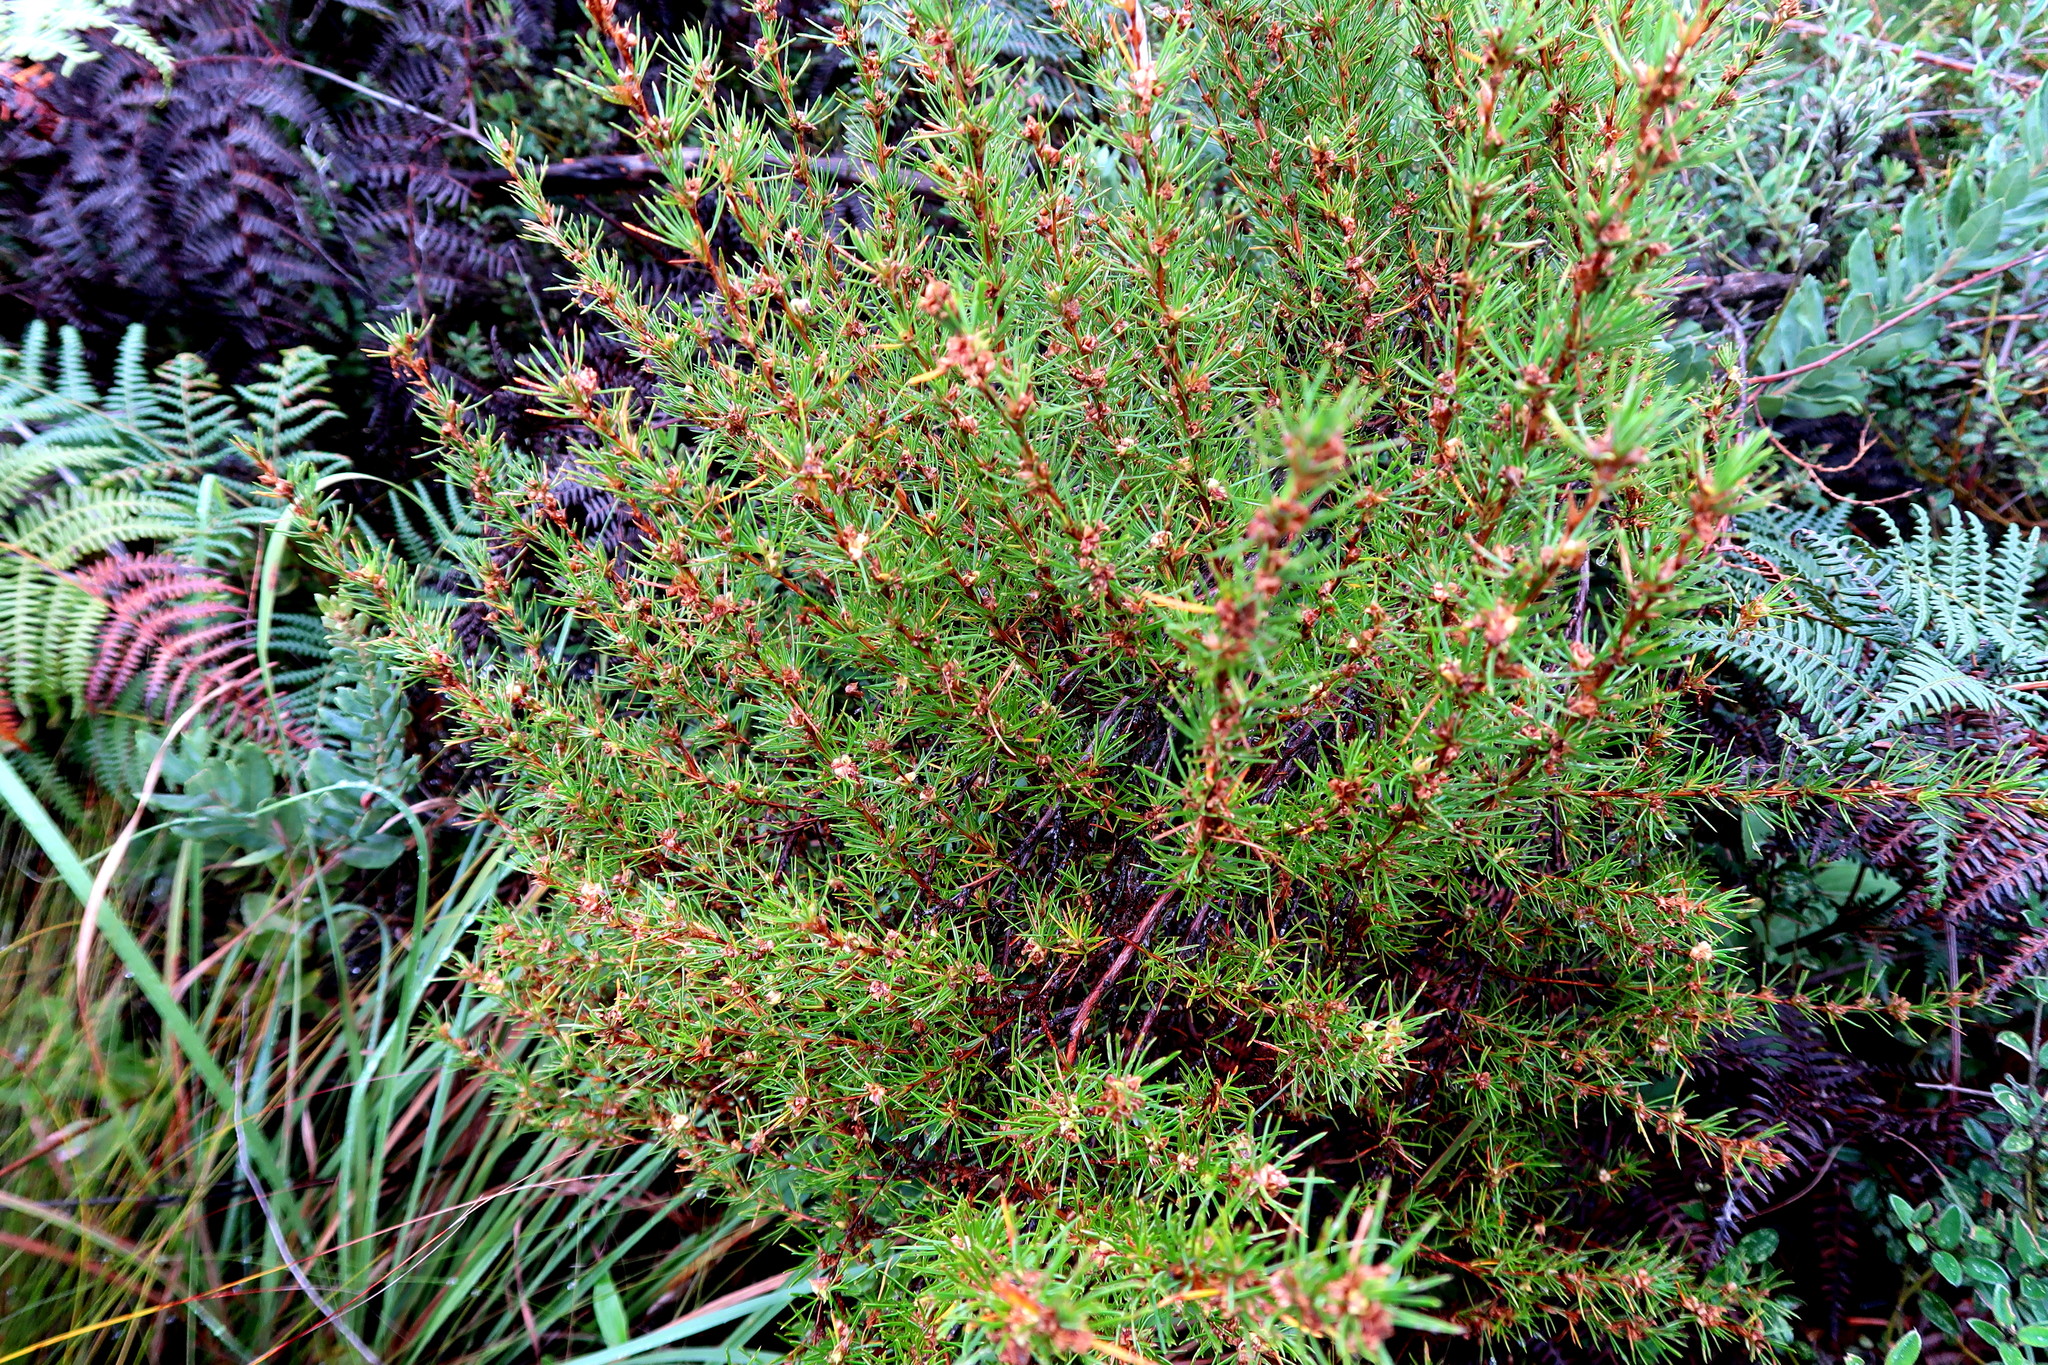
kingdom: Plantae
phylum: Tracheophyta
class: Magnoliopsida
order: Rosales
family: Rosaceae
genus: Cliffortia
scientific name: Cliffortia burchellii
